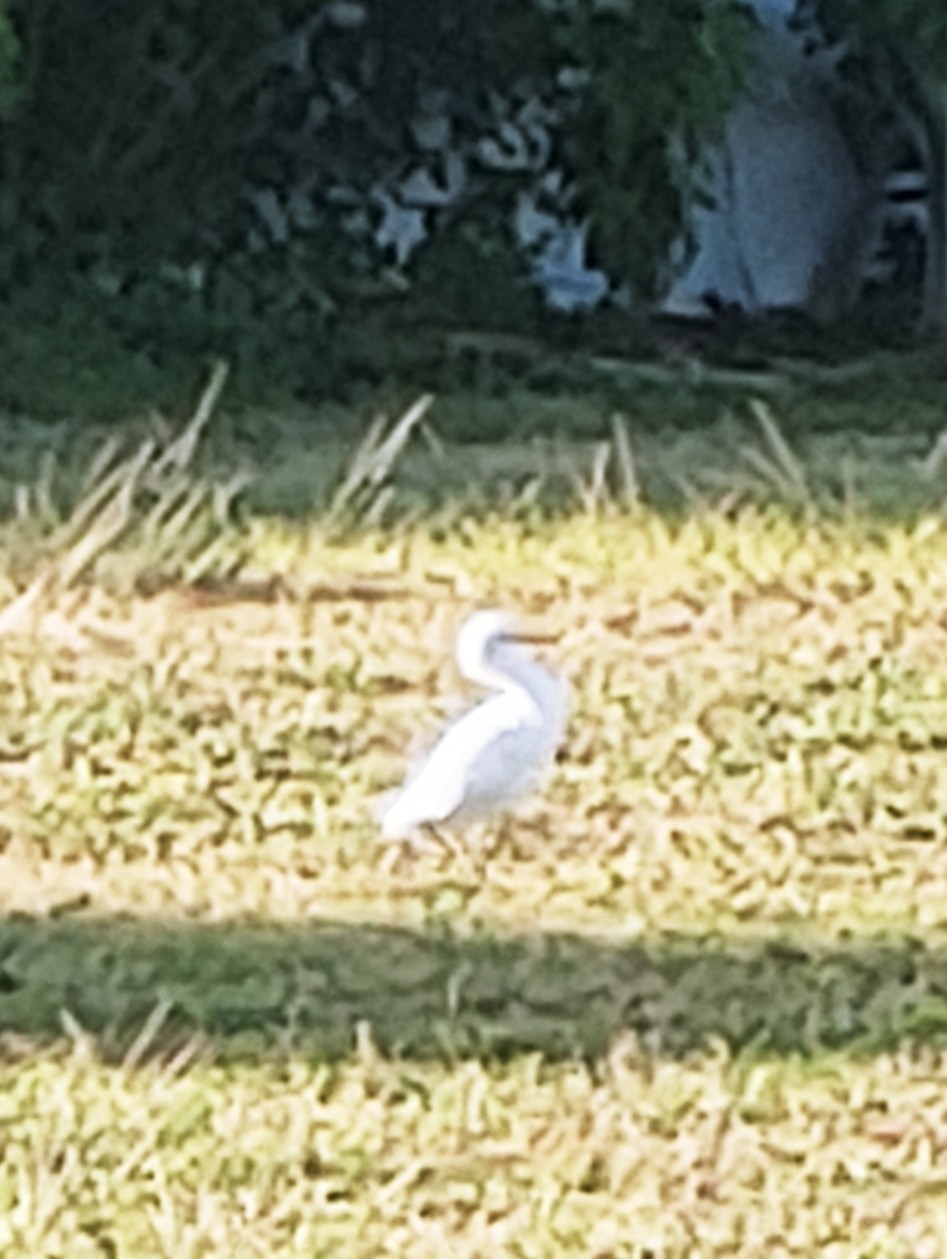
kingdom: Animalia
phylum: Chordata
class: Aves
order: Pelecaniformes
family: Ardeidae
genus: Bubulcus
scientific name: Bubulcus ibis
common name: Cattle egret
